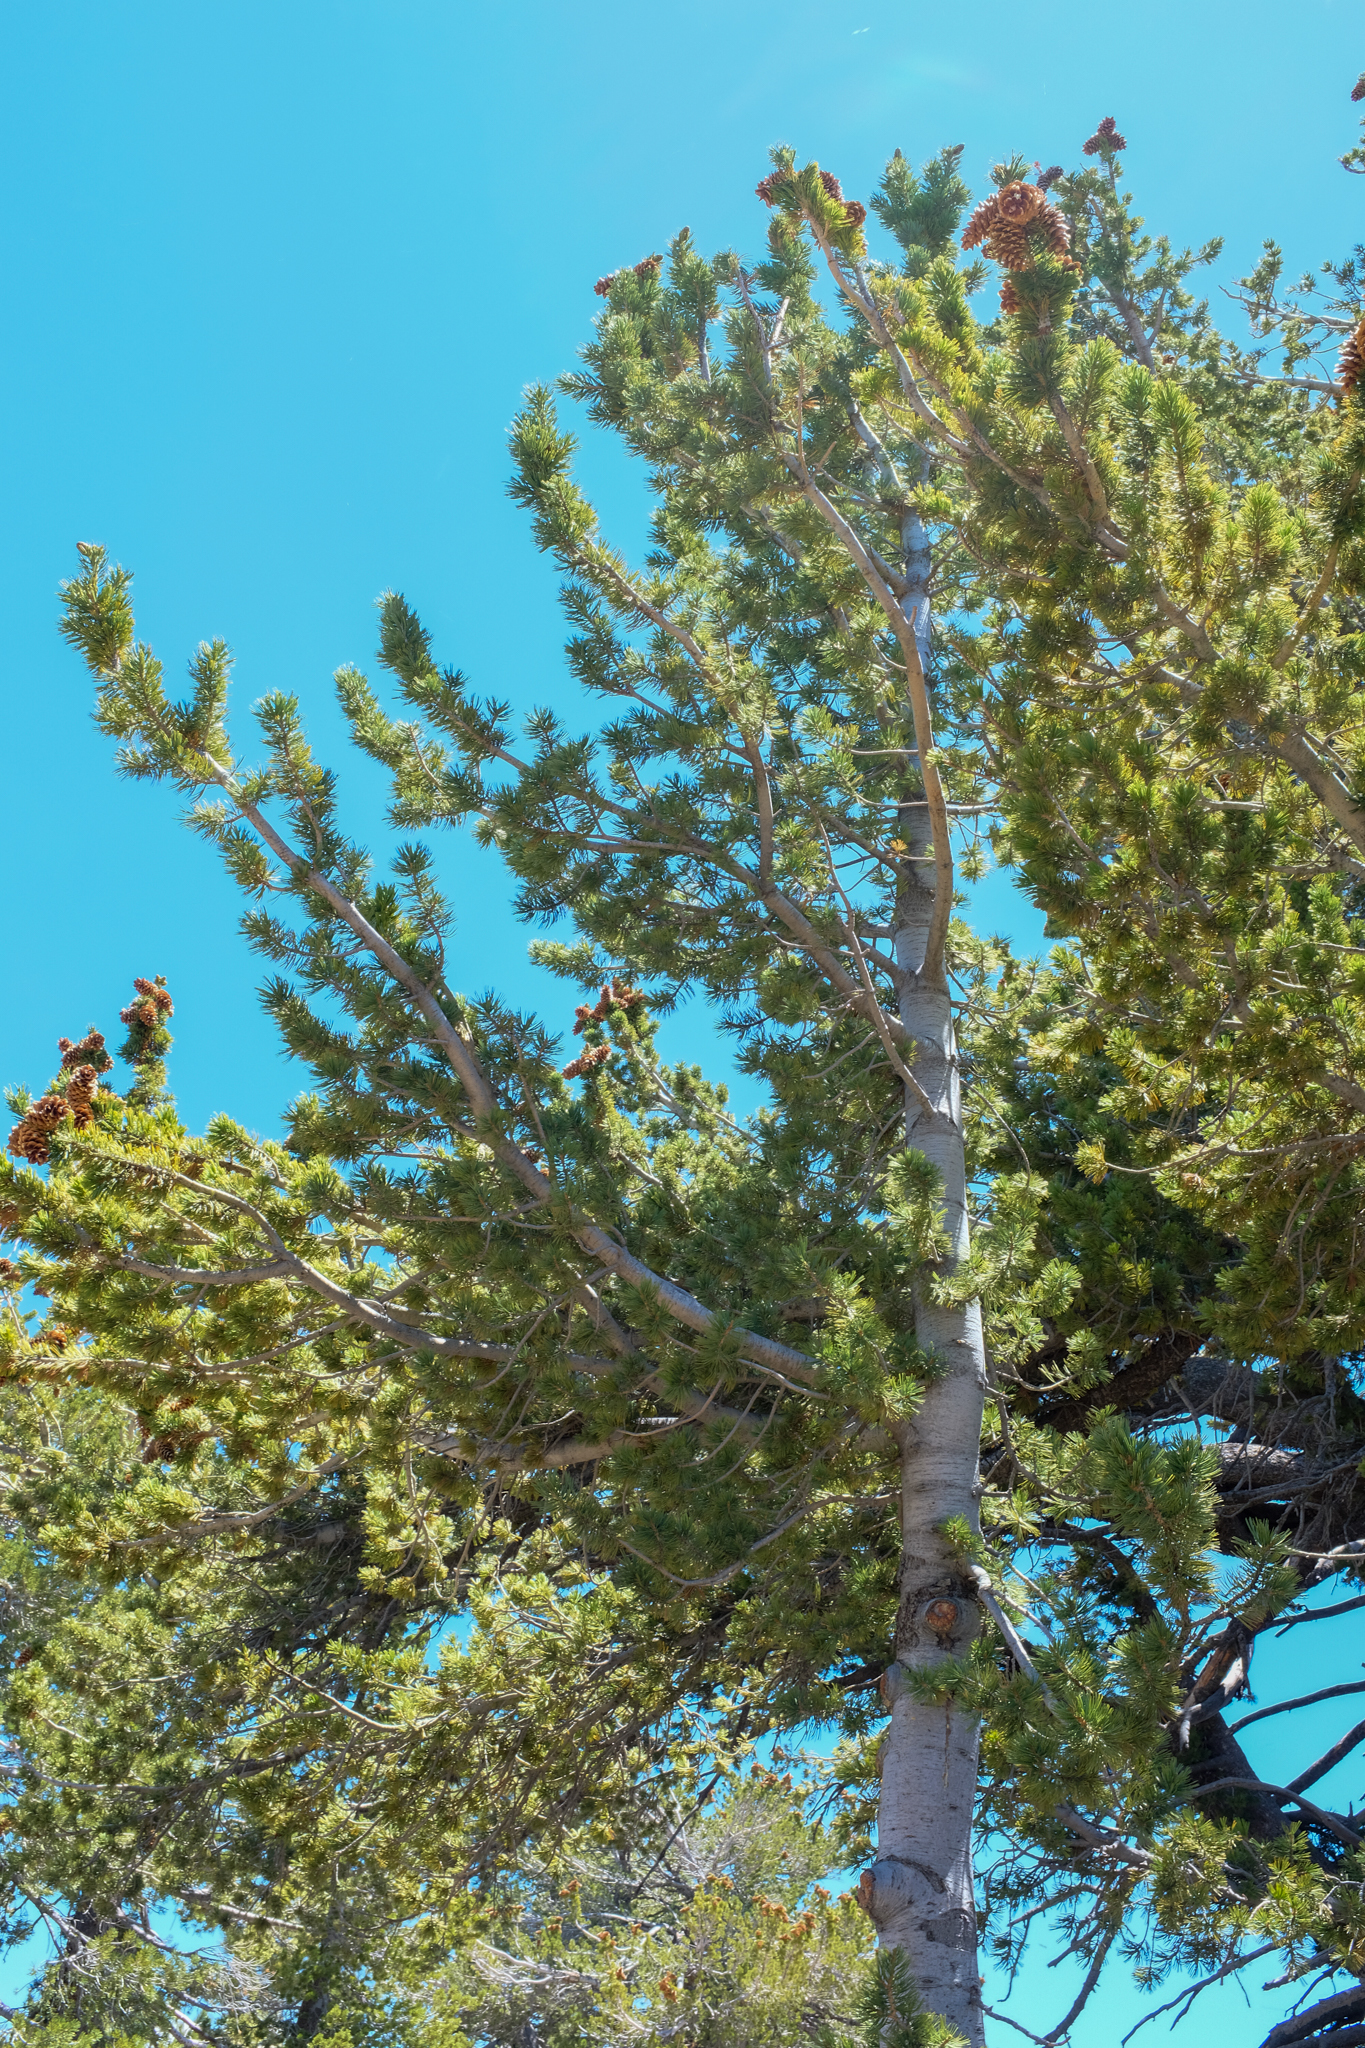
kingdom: Plantae
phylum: Tracheophyta
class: Pinopsida
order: Pinales
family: Pinaceae
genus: Pinus
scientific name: Pinus flexilis
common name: Limber pine
